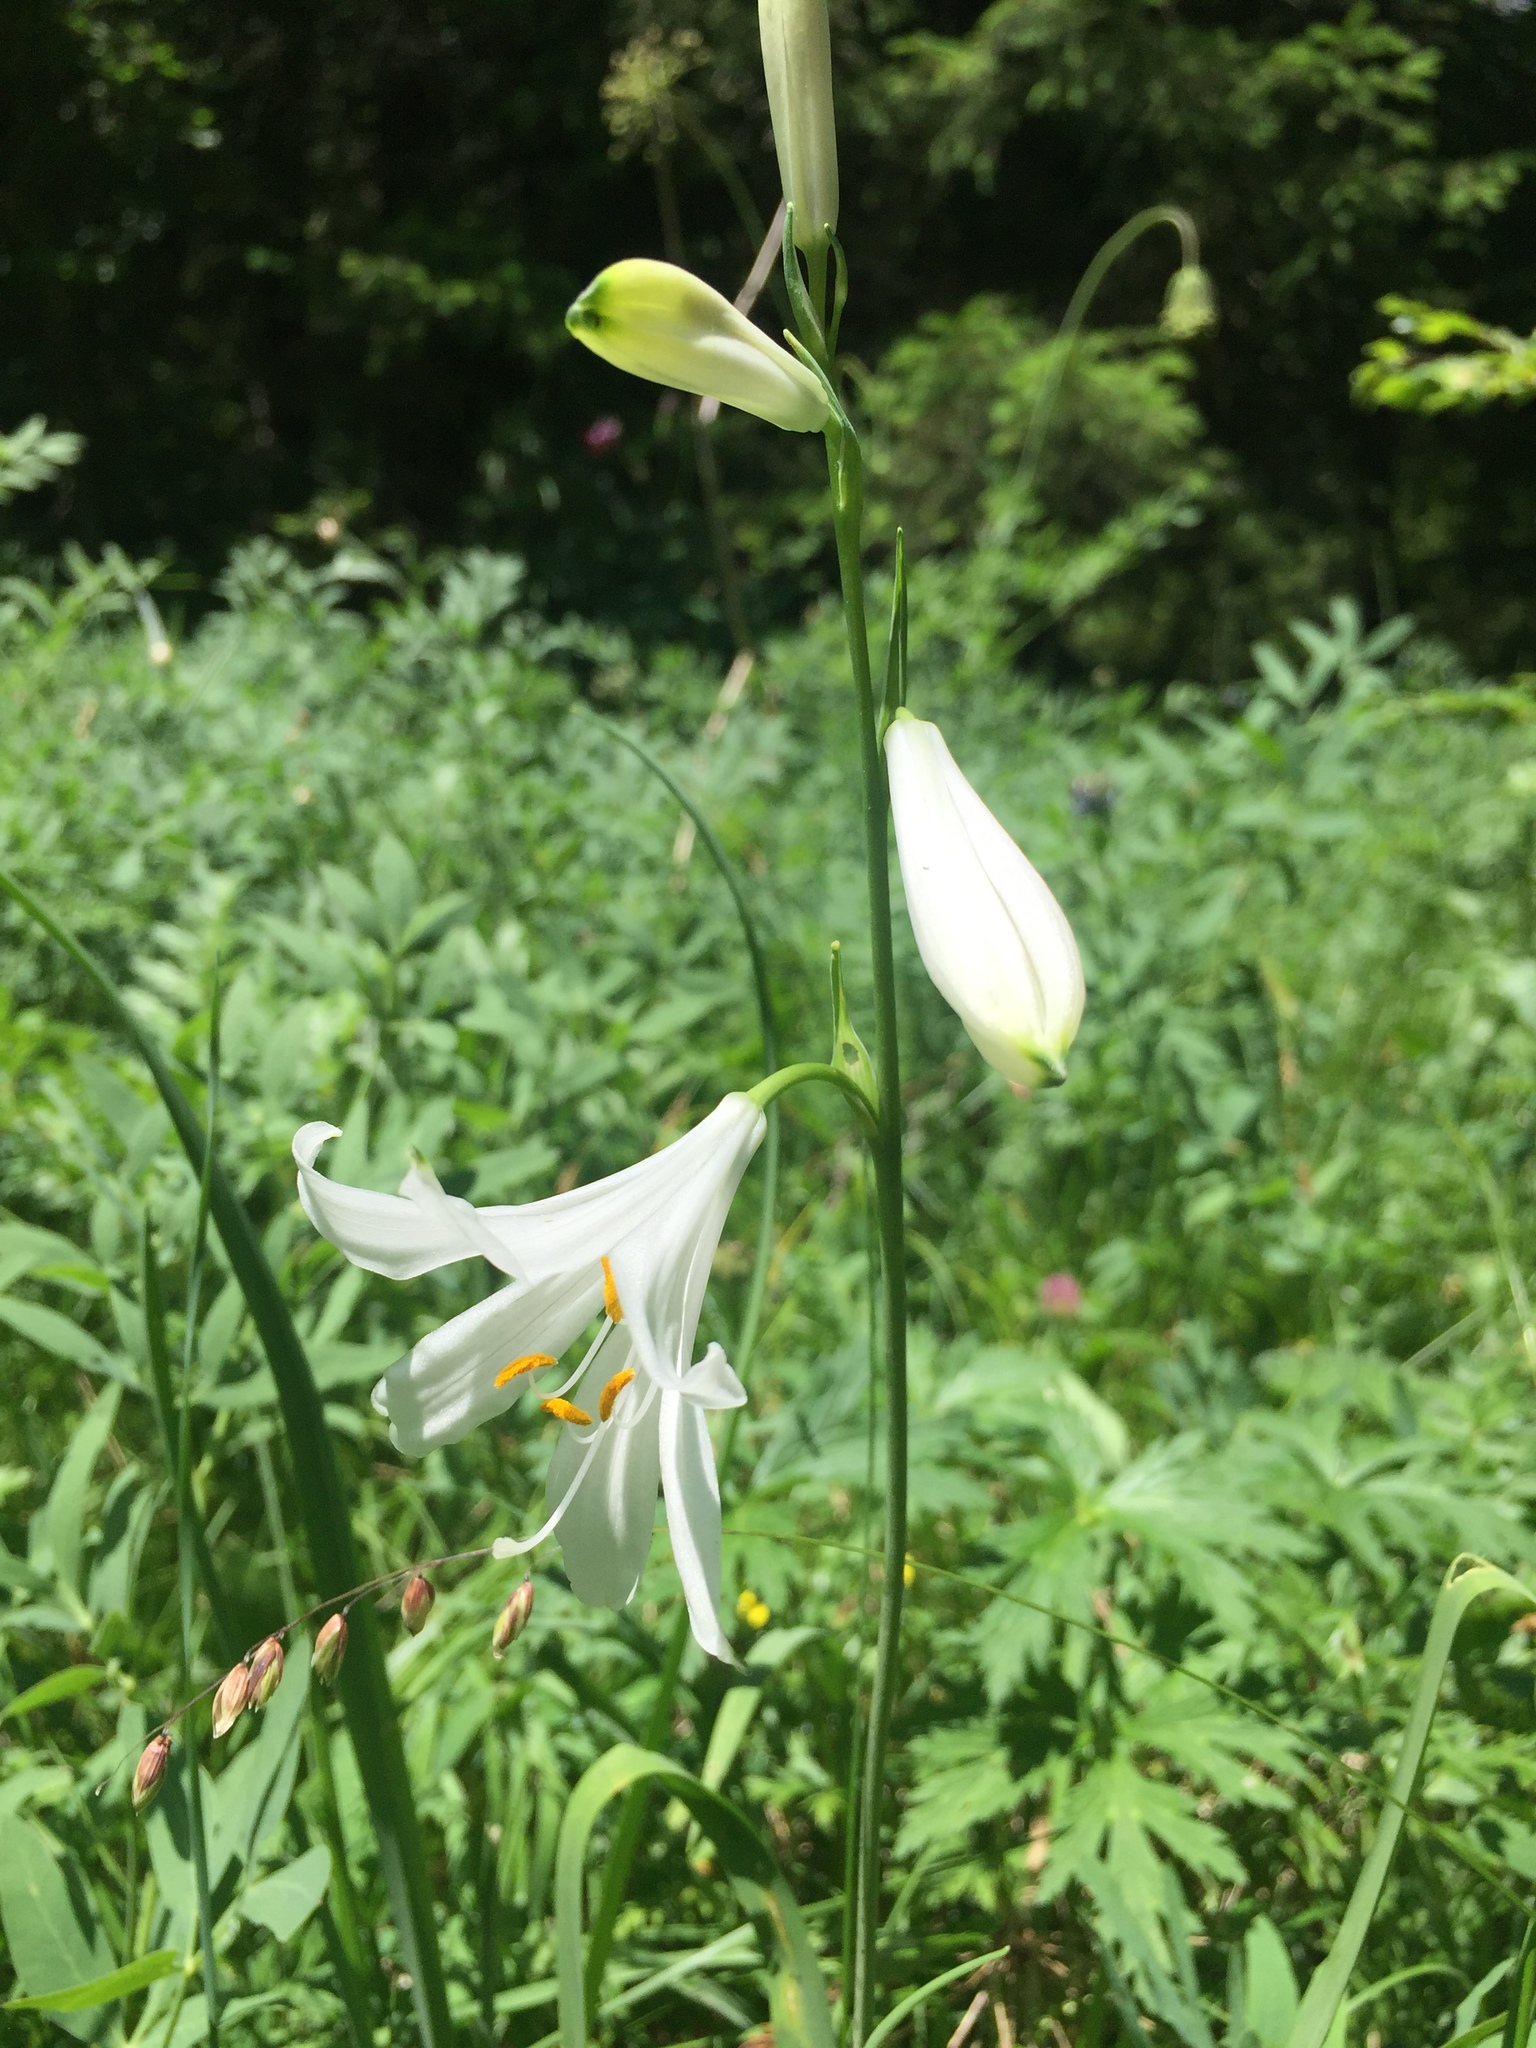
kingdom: Plantae
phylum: Tracheophyta
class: Liliopsida
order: Asparagales
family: Asparagaceae
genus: Paradisea
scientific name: Paradisea liliastrum
